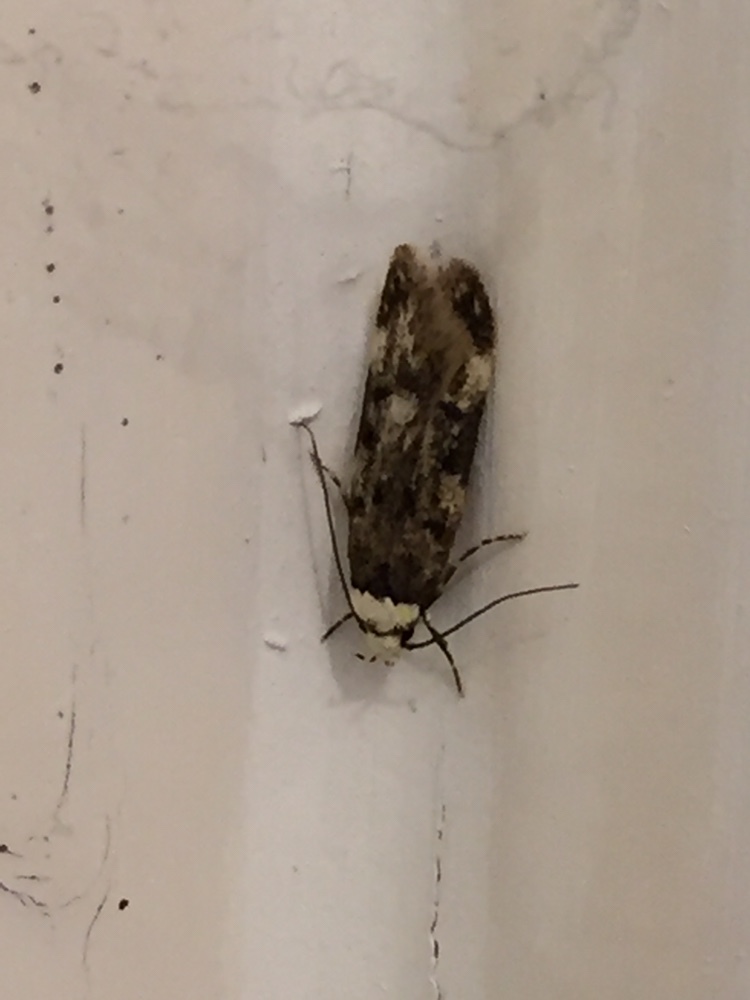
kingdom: Animalia
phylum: Arthropoda
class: Insecta
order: Lepidoptera
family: Oecophoridae
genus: Endrosis
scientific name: Endrosis sarcitrella
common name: White-shouldered house moth
